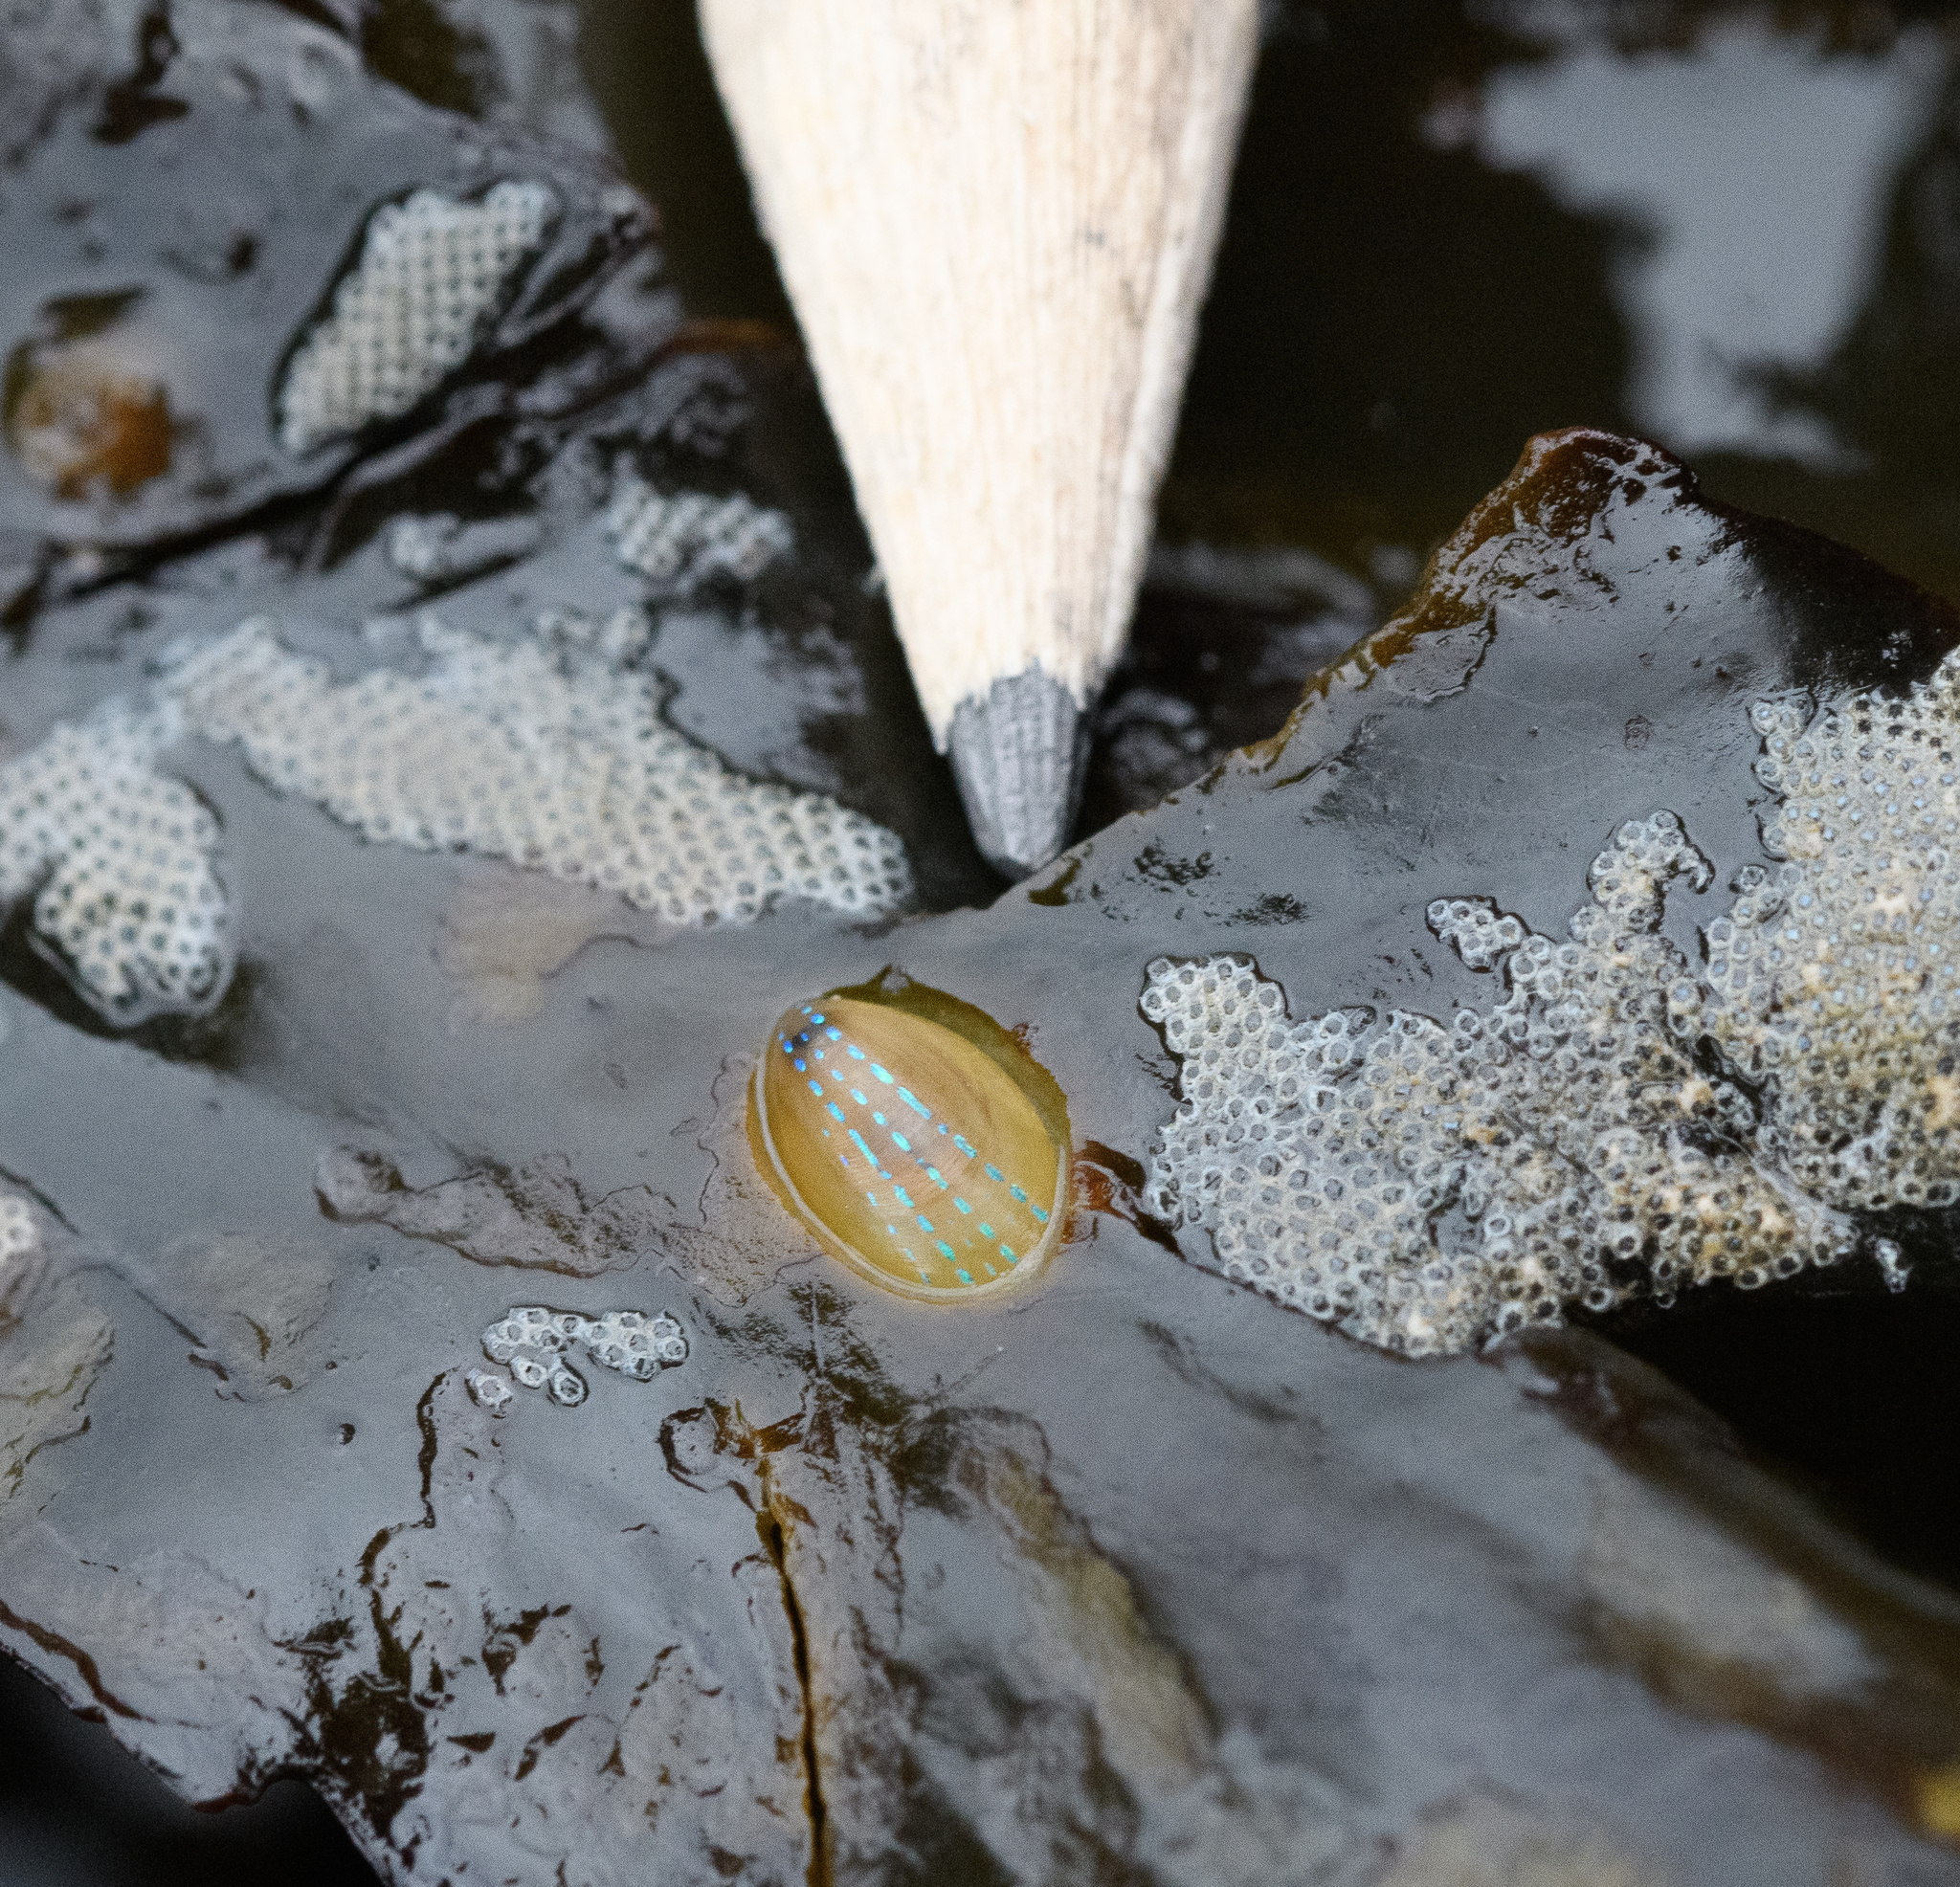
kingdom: Animalia
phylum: Mollusca
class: Gastropoda
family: Patellidae
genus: Patella
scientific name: Patella pellucida
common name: Blue-rayed limpet
